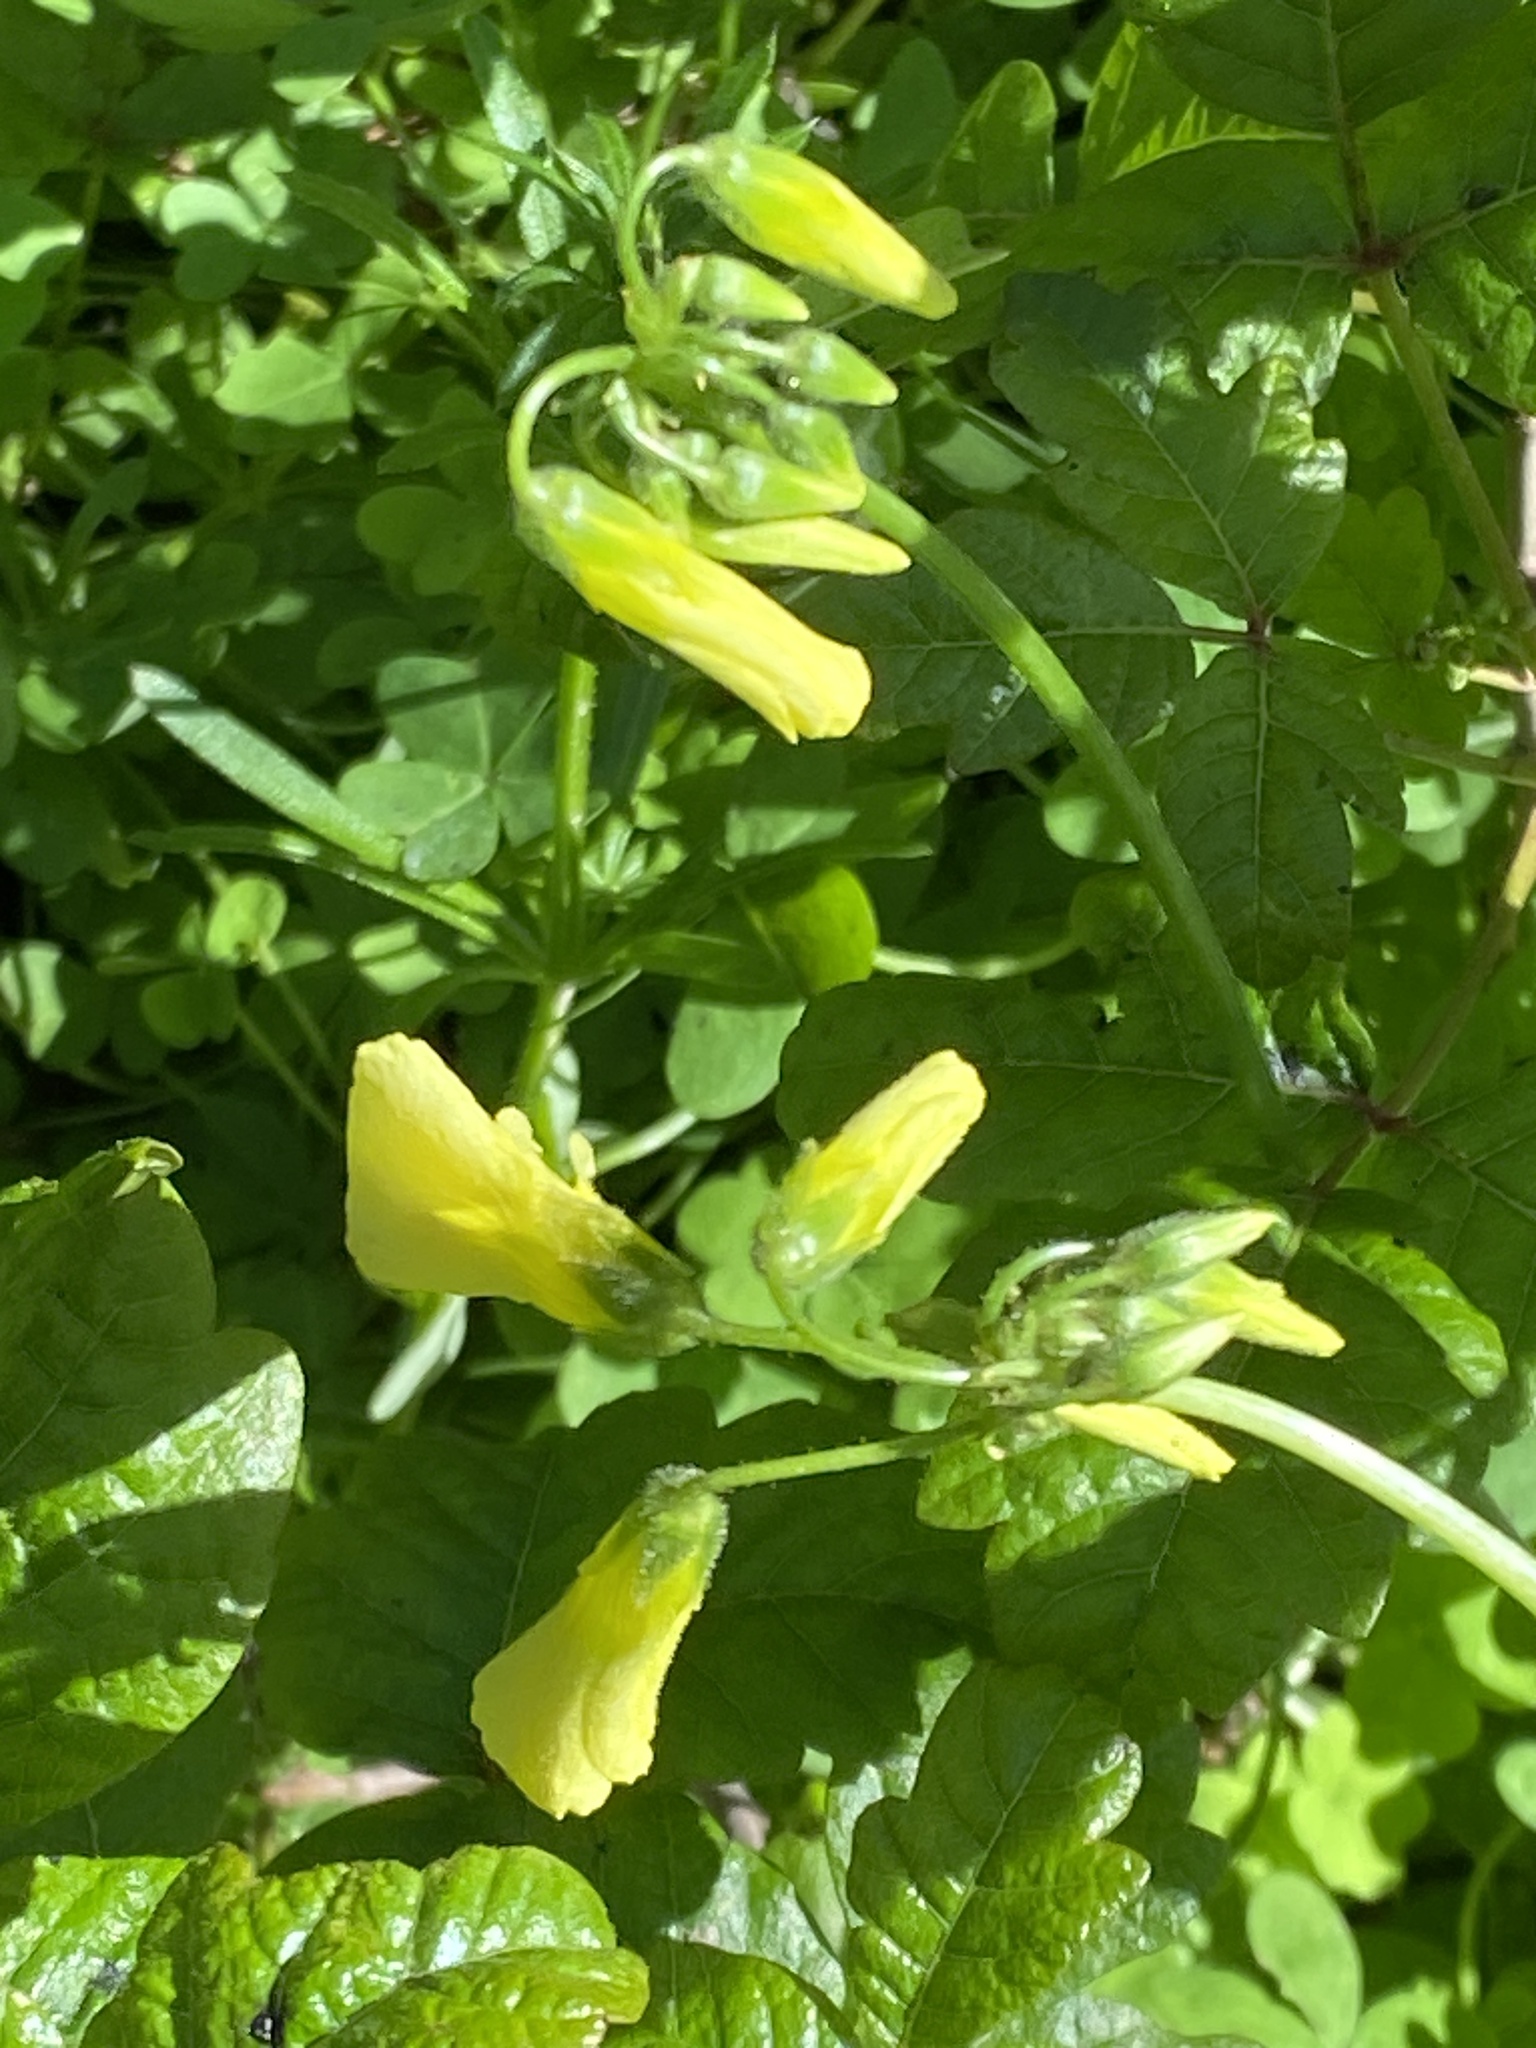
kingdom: Plantae
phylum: Tracheophyta
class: Magnoliopsida
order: Oxalidales
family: Oxalidaceae
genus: Oxalis
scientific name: Oxalis pes-caprae
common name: Bermuda-buttercup
